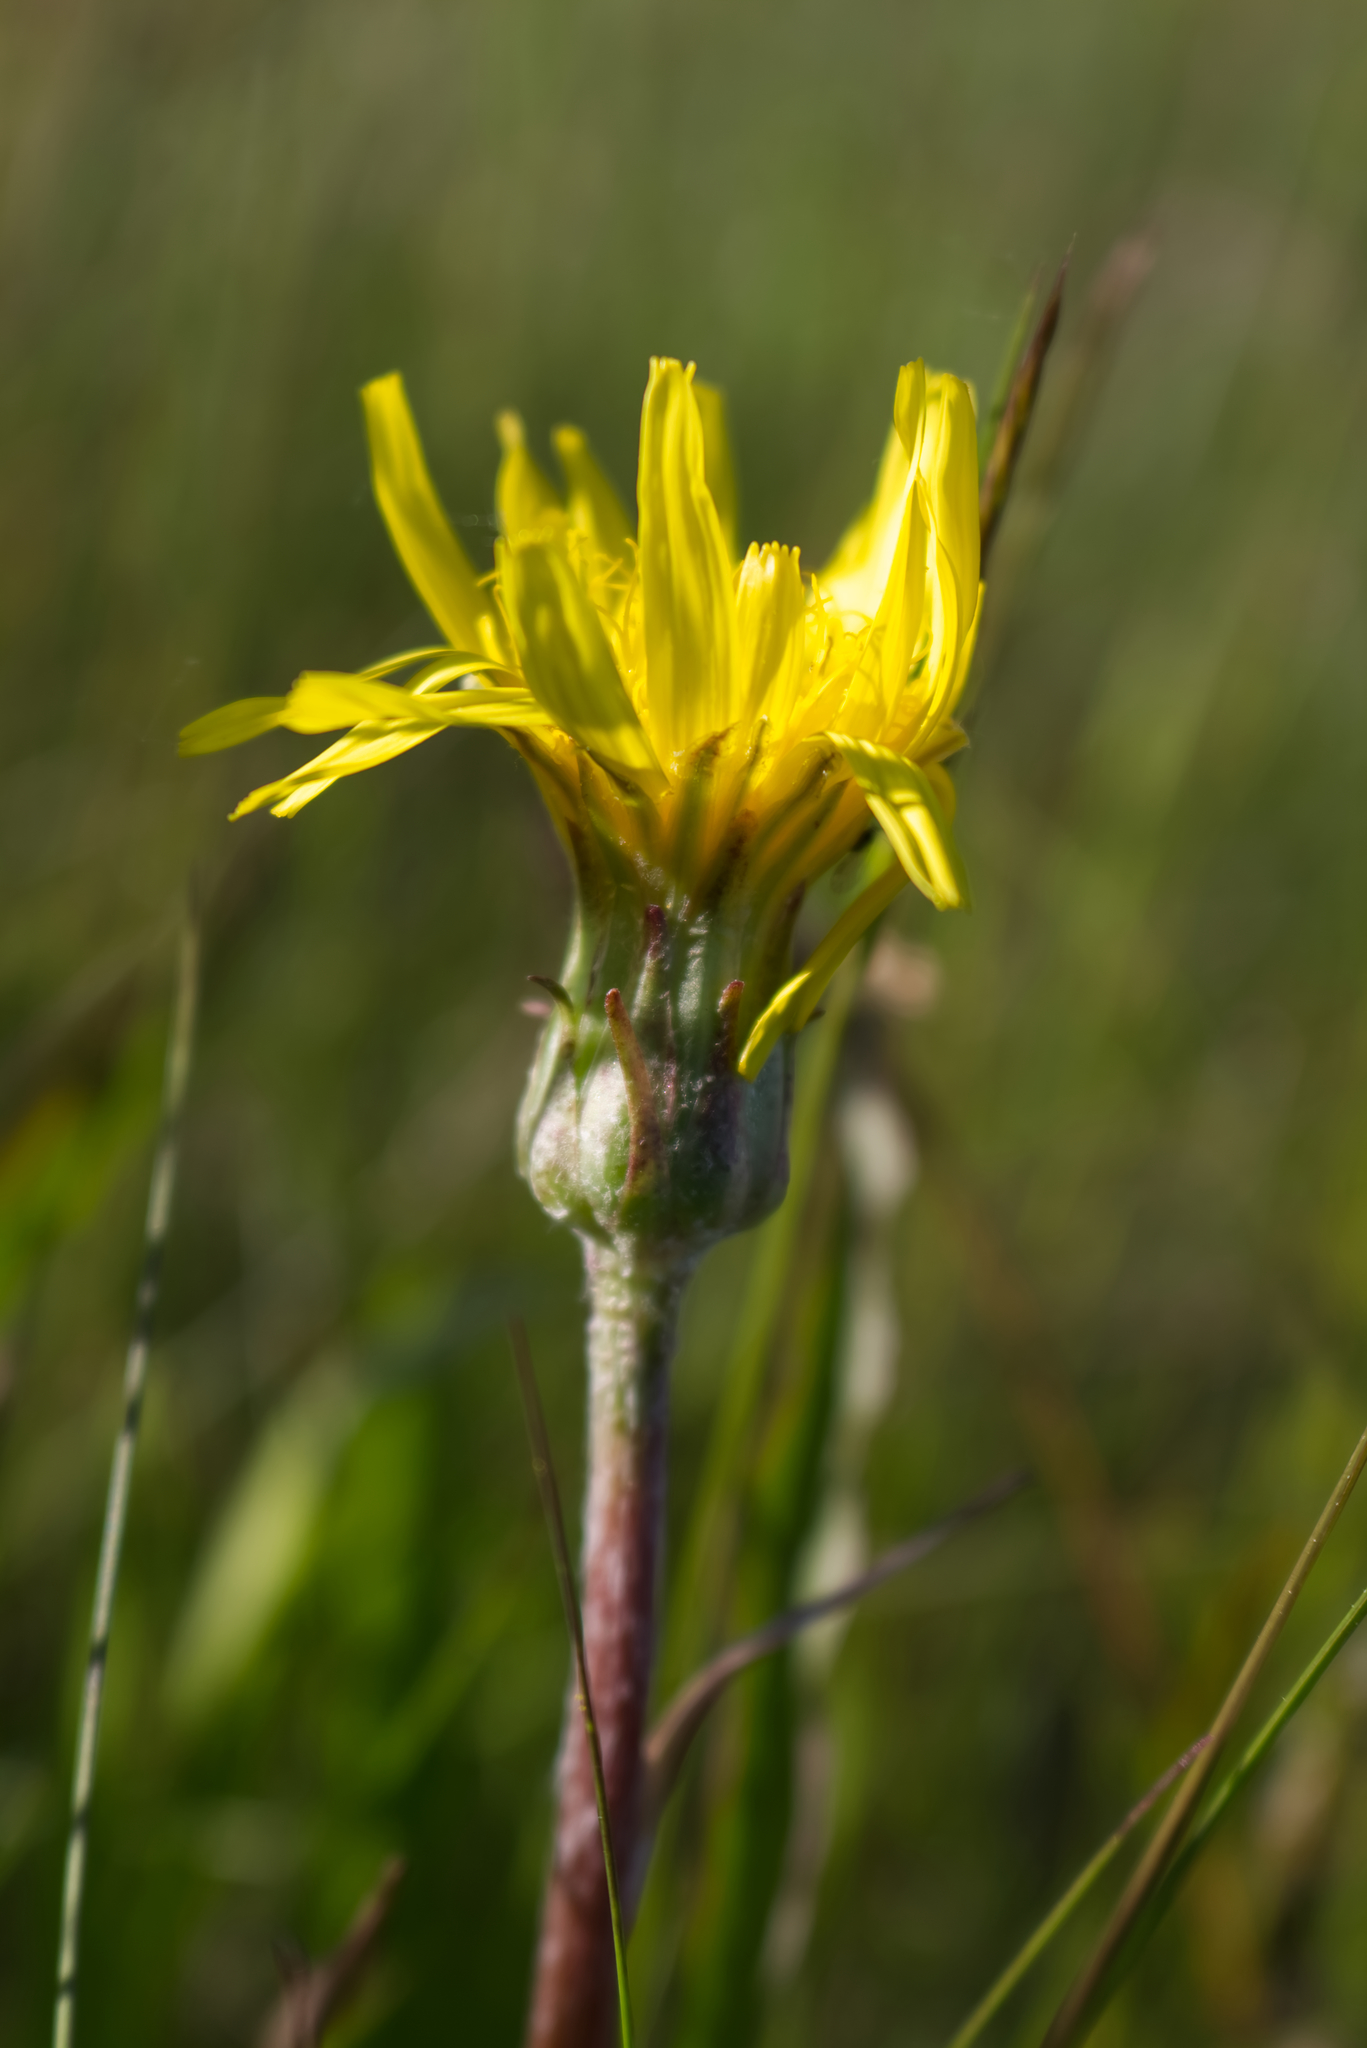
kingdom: Plantae
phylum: Tracheophyta
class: Magnoliopsida
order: Asterales
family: Asteraceae
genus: Scorzonera
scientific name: Scorzonera humilis
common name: Viper's-grass
